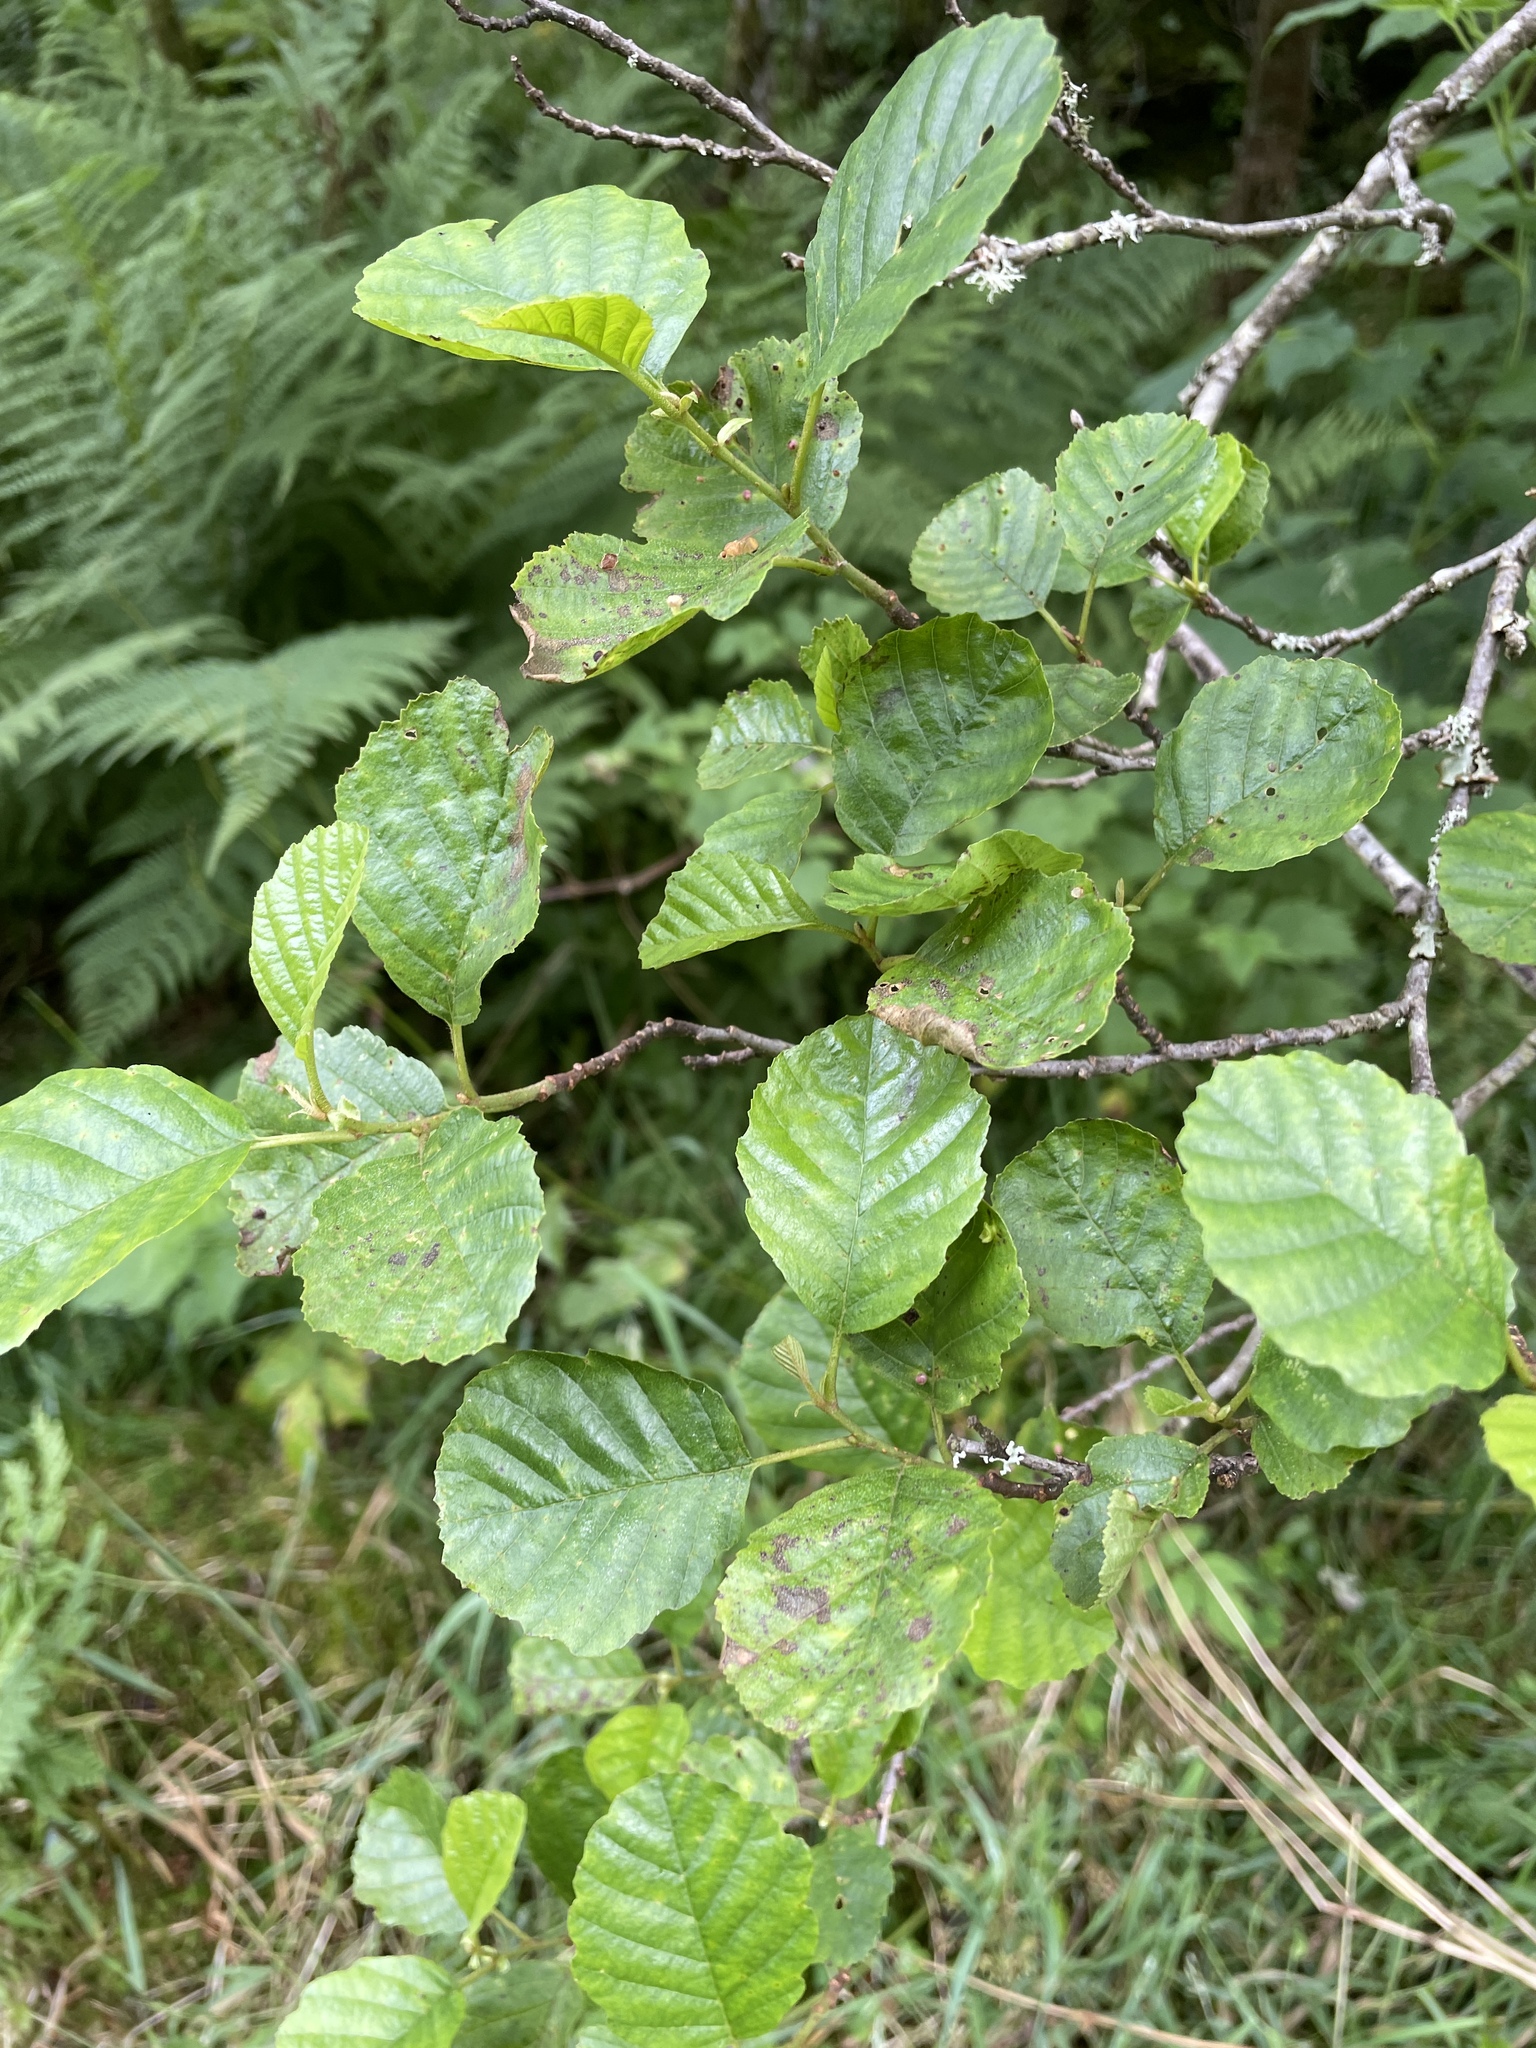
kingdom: Plantae
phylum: Tracheophyta
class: Magnoliopsida
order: Fagales
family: Betulaceae
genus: Alnus
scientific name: Alnus glutinosa
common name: Black alder
